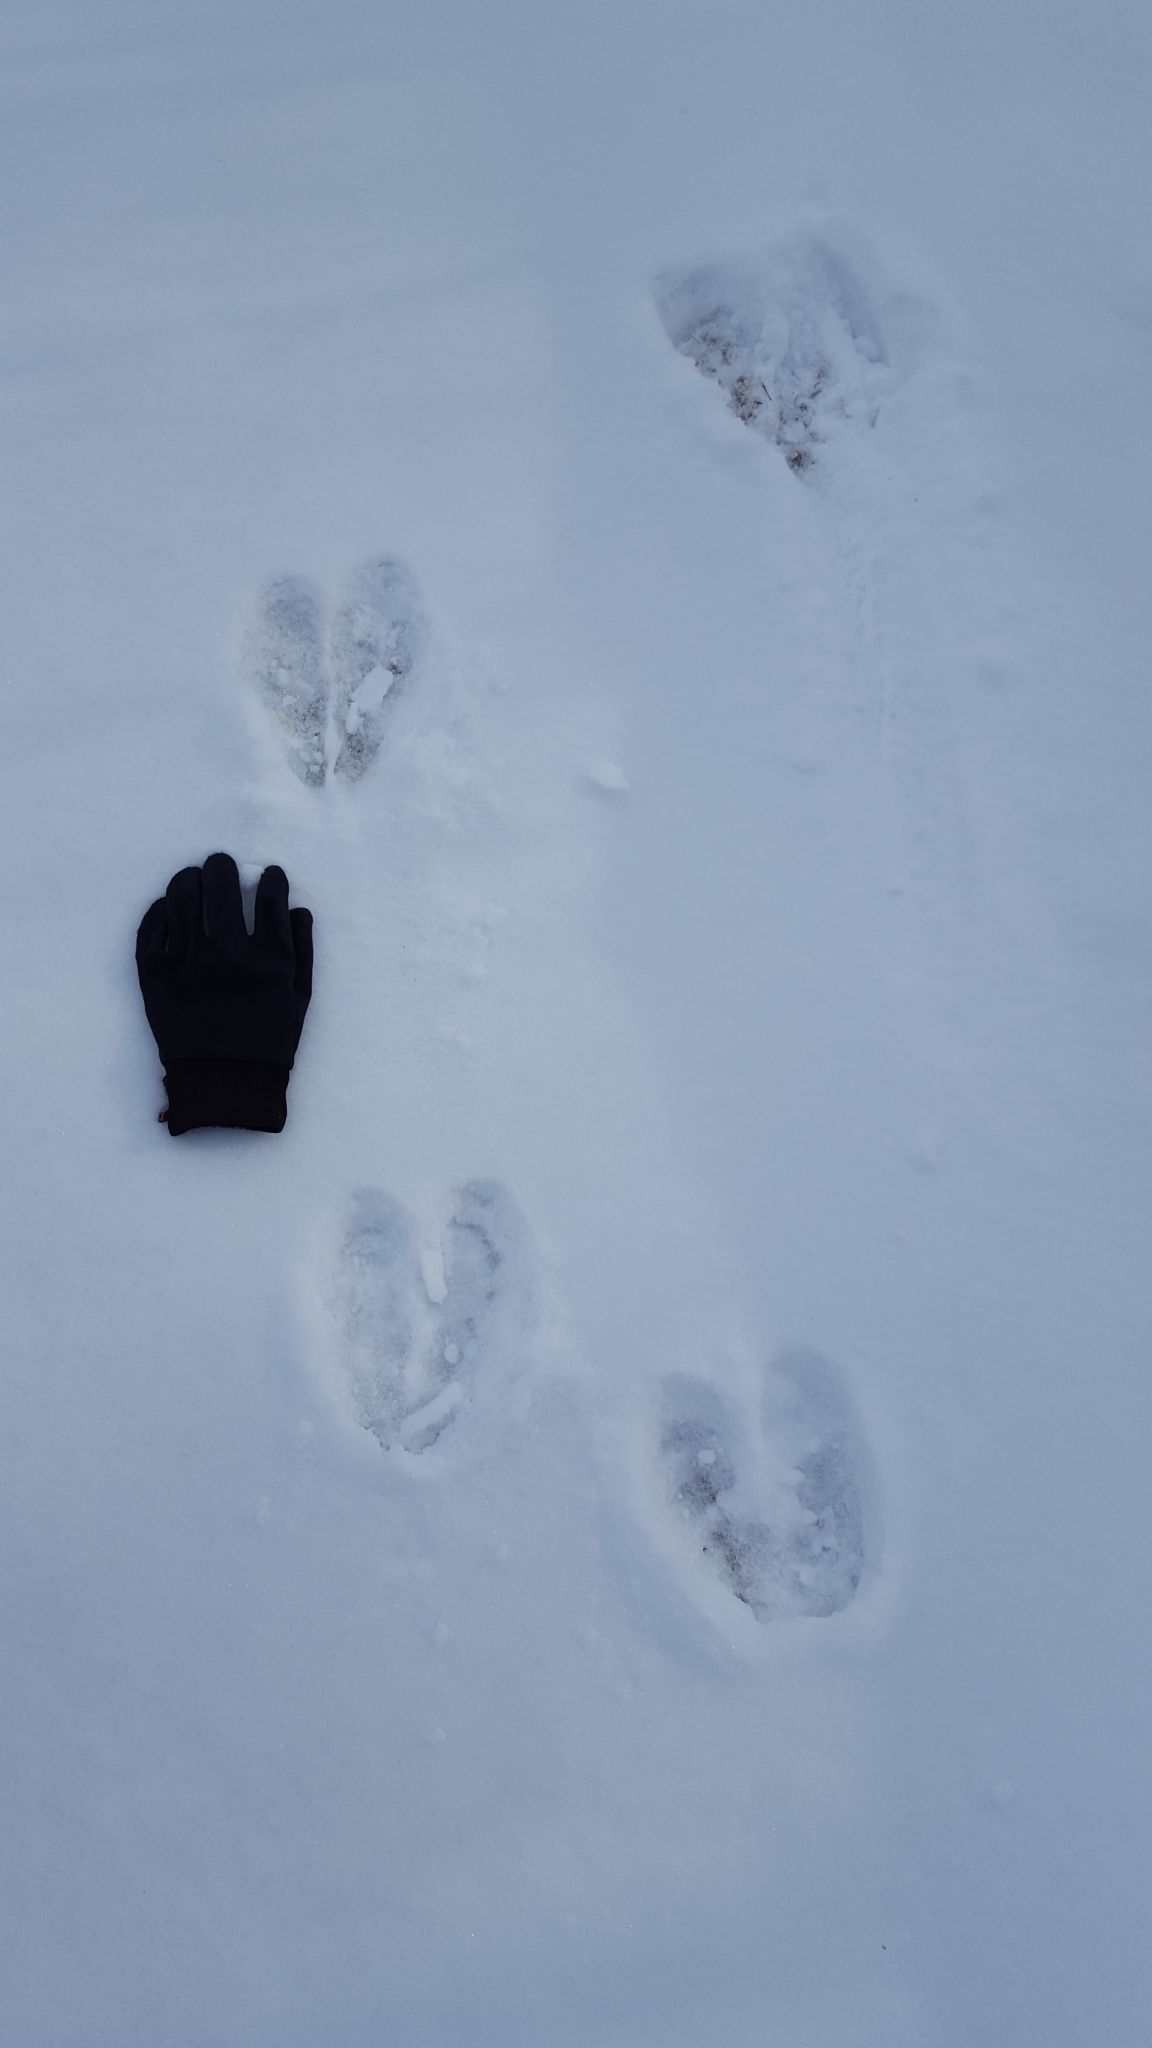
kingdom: Animalia
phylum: Chordata
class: Mammalia
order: Artiodactyla
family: Cervidae
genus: Alces
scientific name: Alces americanus
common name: Moose
